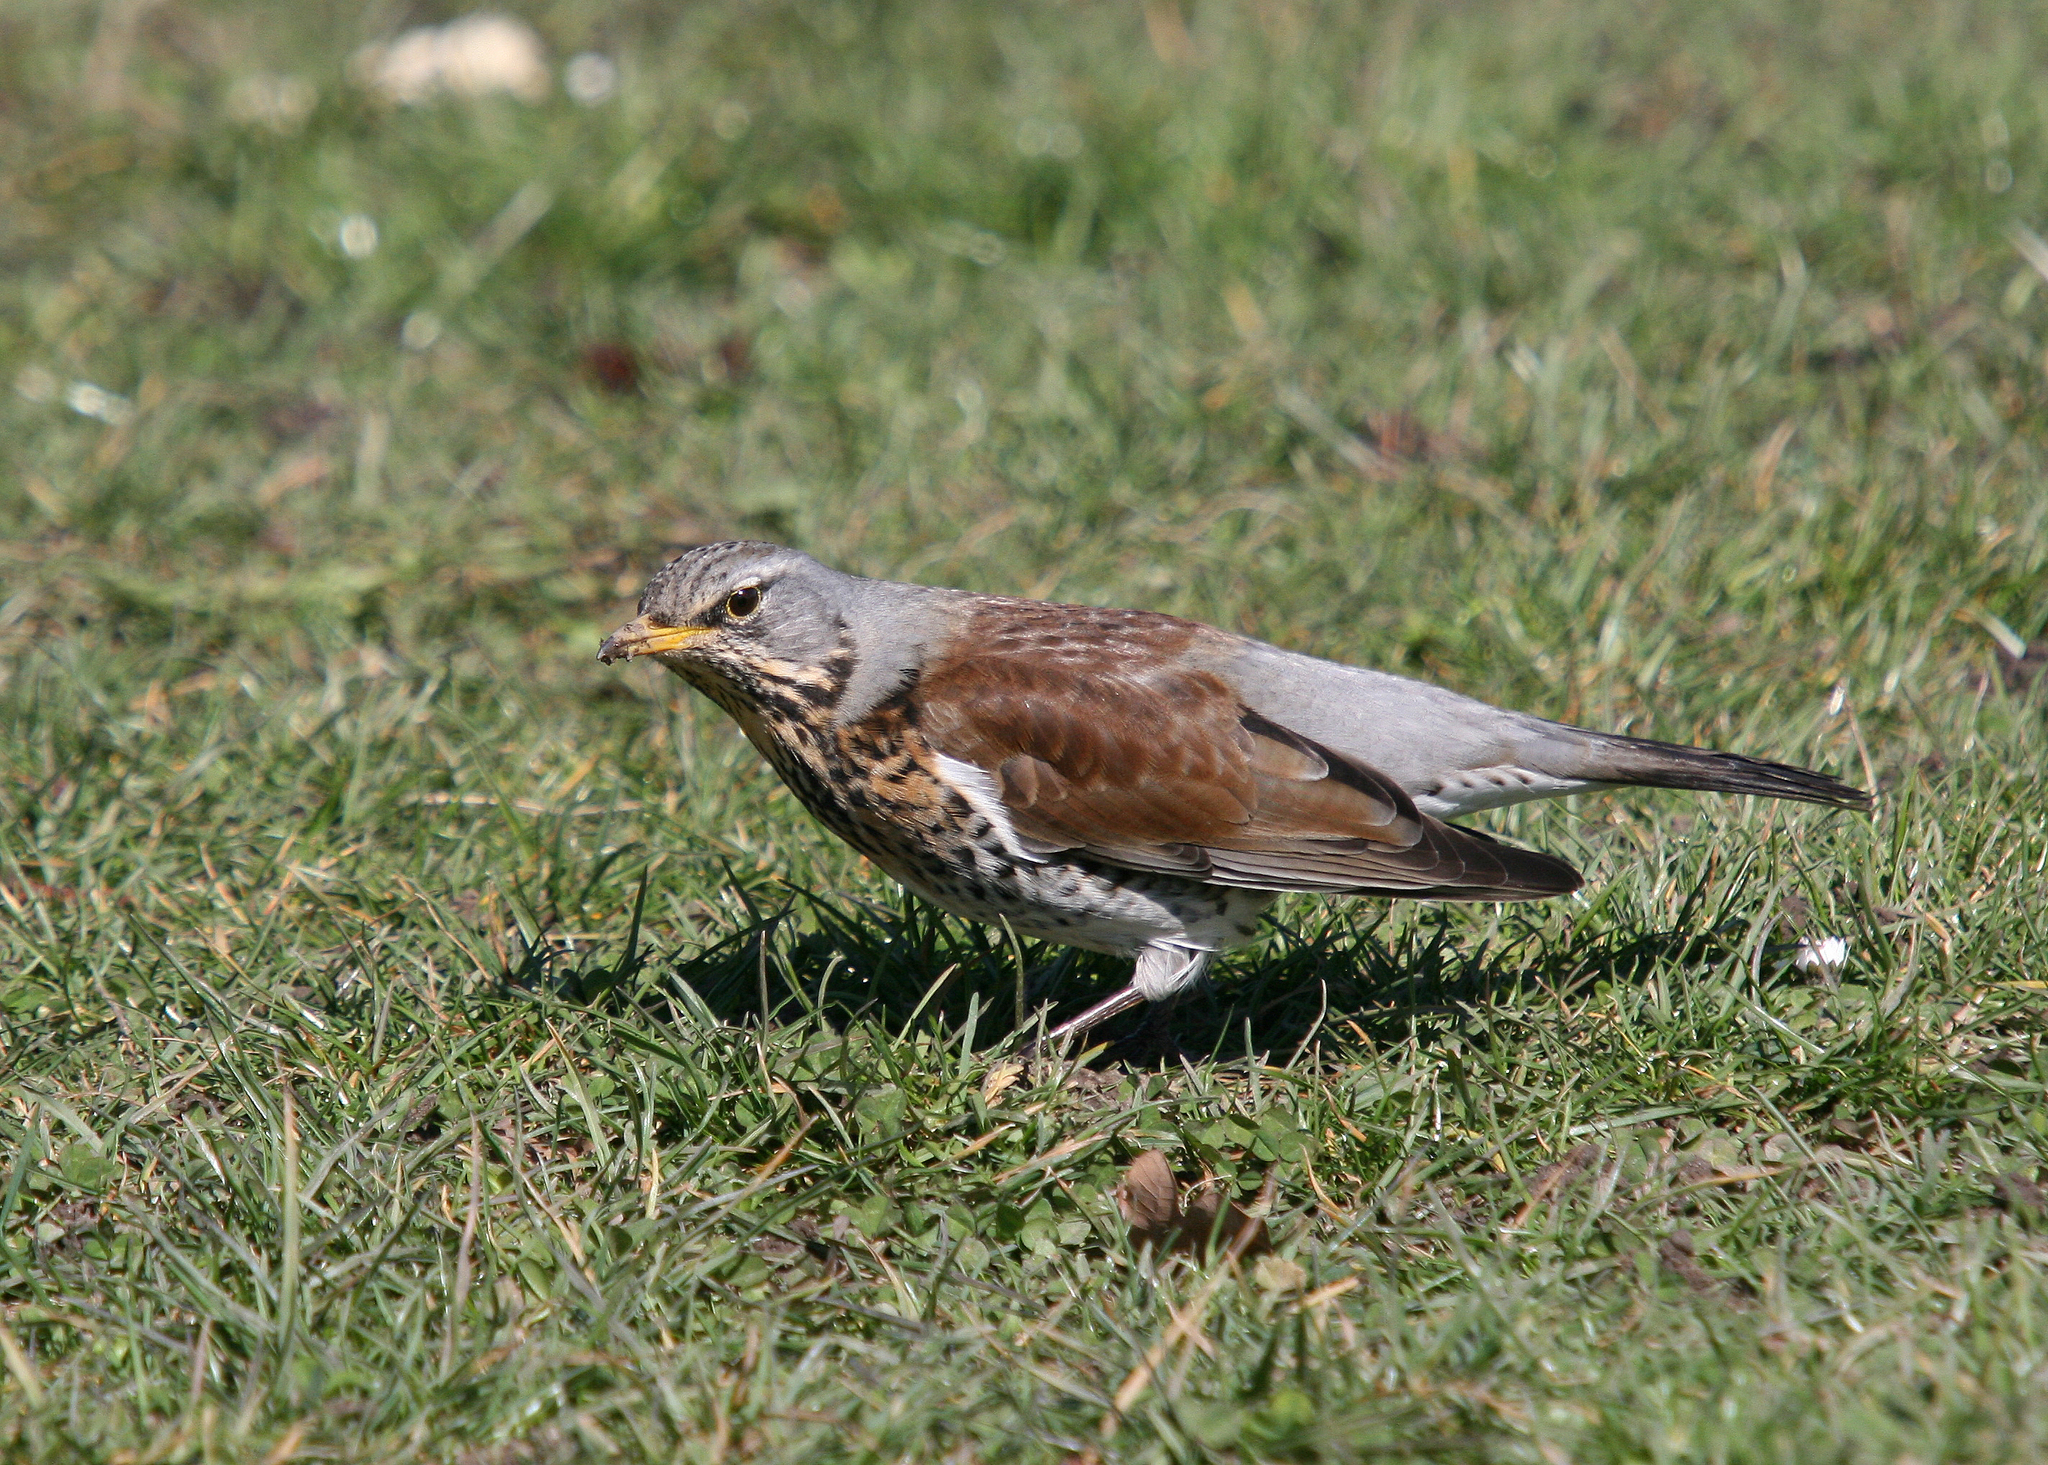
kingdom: Animalia
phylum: Chordata
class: Aves
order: Passeriformes
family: Turdidae
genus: Turdus
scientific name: Turdus pilaris
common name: Fieldfare
